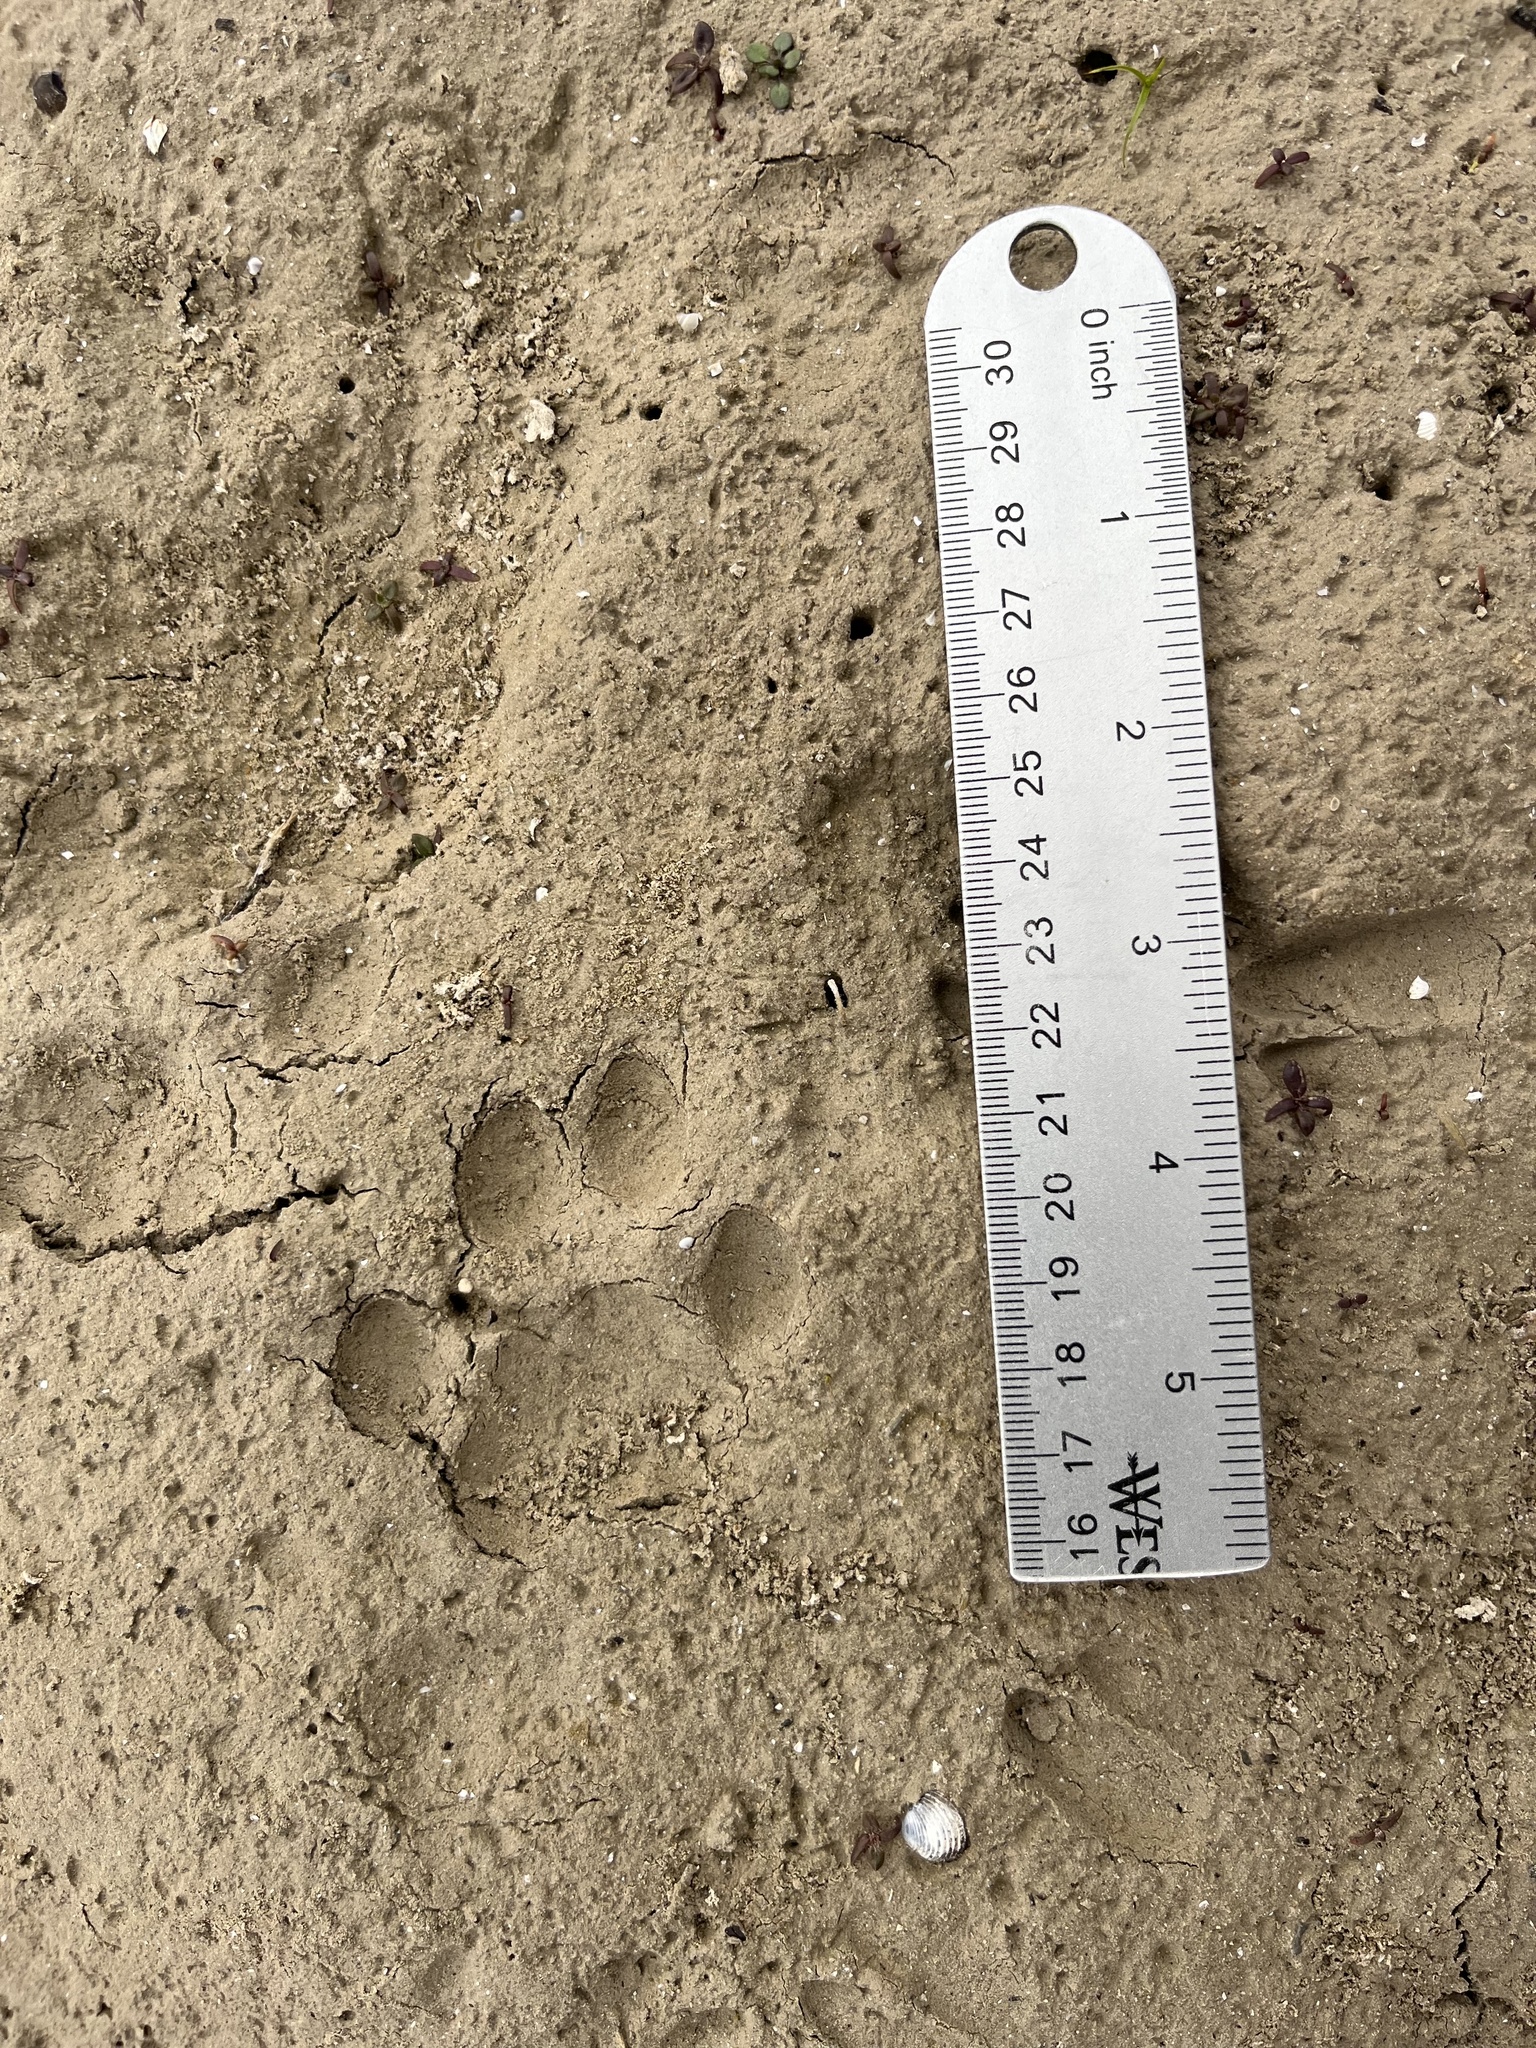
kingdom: Animalia
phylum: Chordata
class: Mammalia
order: Carnivora
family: Felidae
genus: Lynx
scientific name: Lynx rufus
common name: Bobcat
